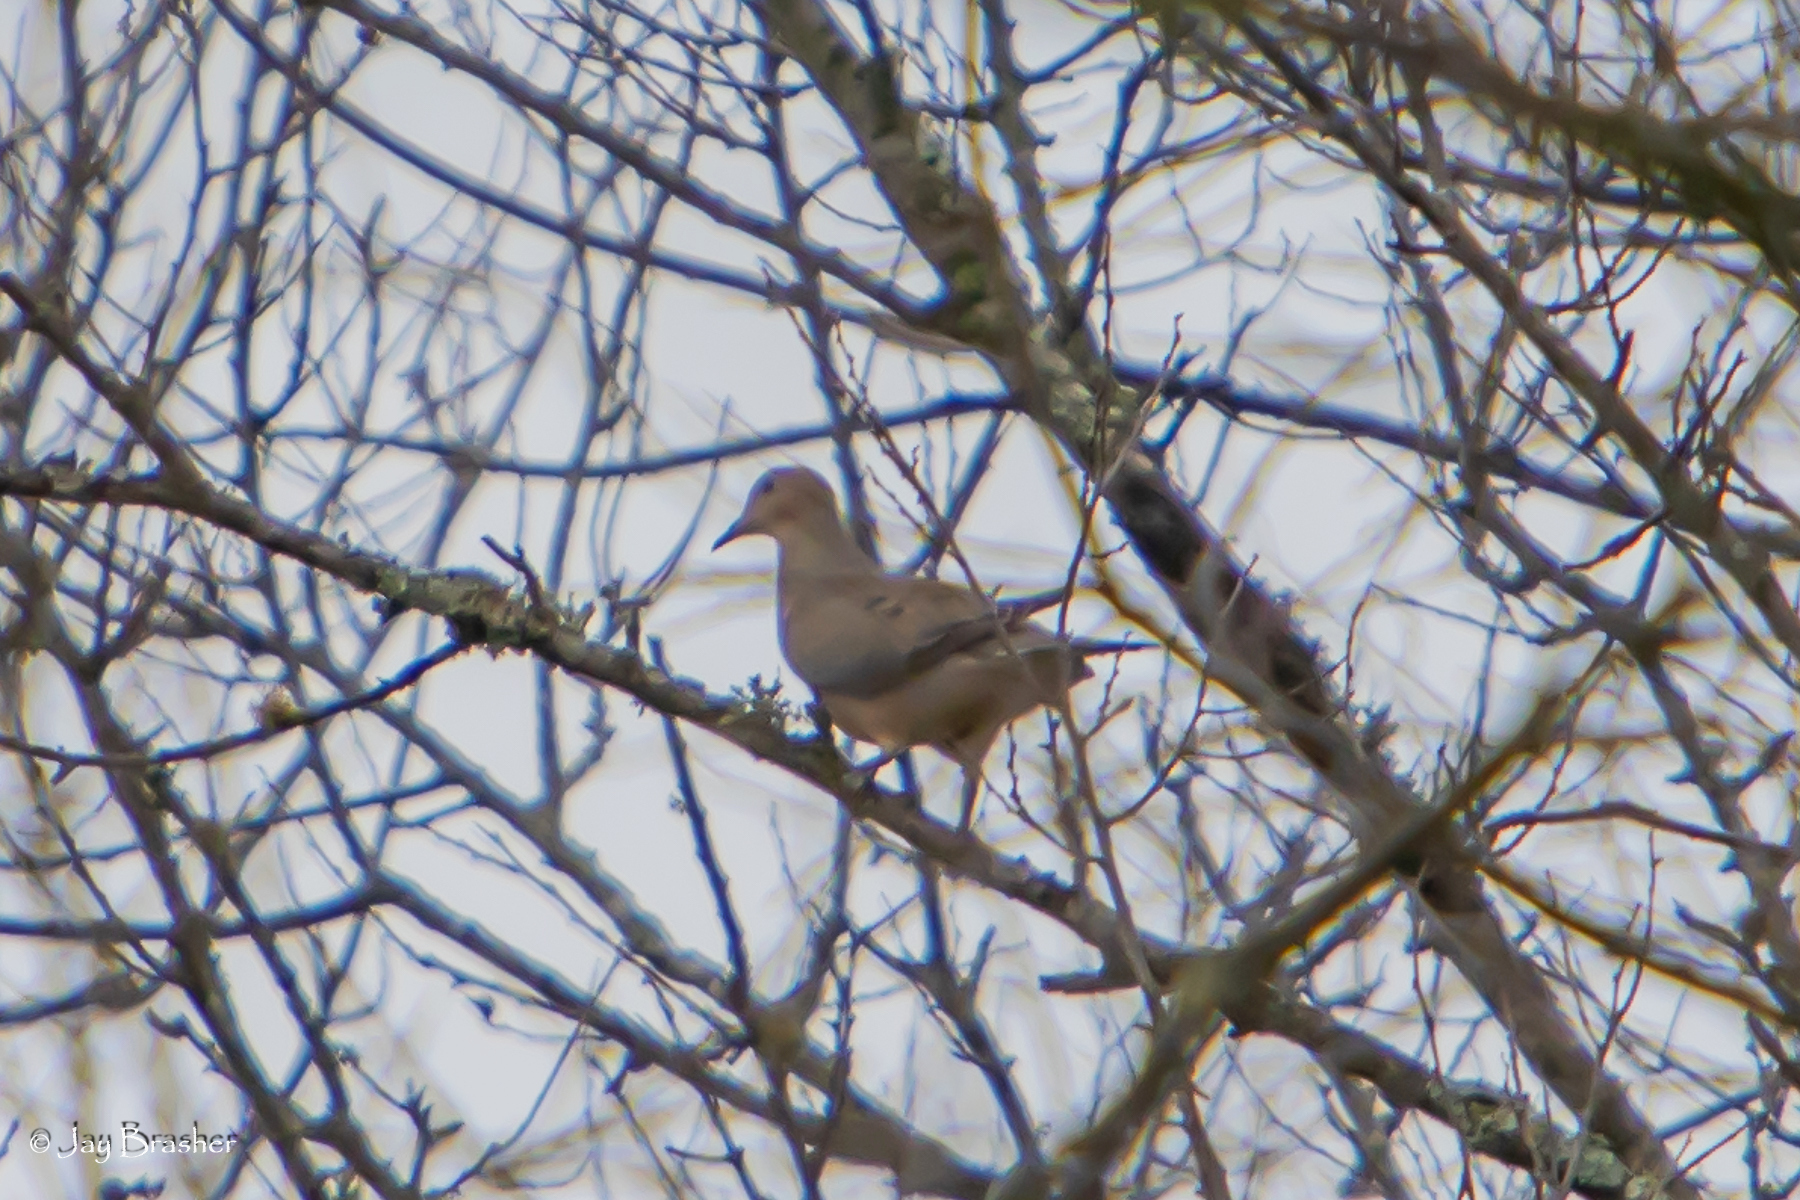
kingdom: Animalia
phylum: Chordata
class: Aves
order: Columbiformes
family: Columbidae
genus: Zenaida
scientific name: Zenaida macroura
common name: Mourning dove
